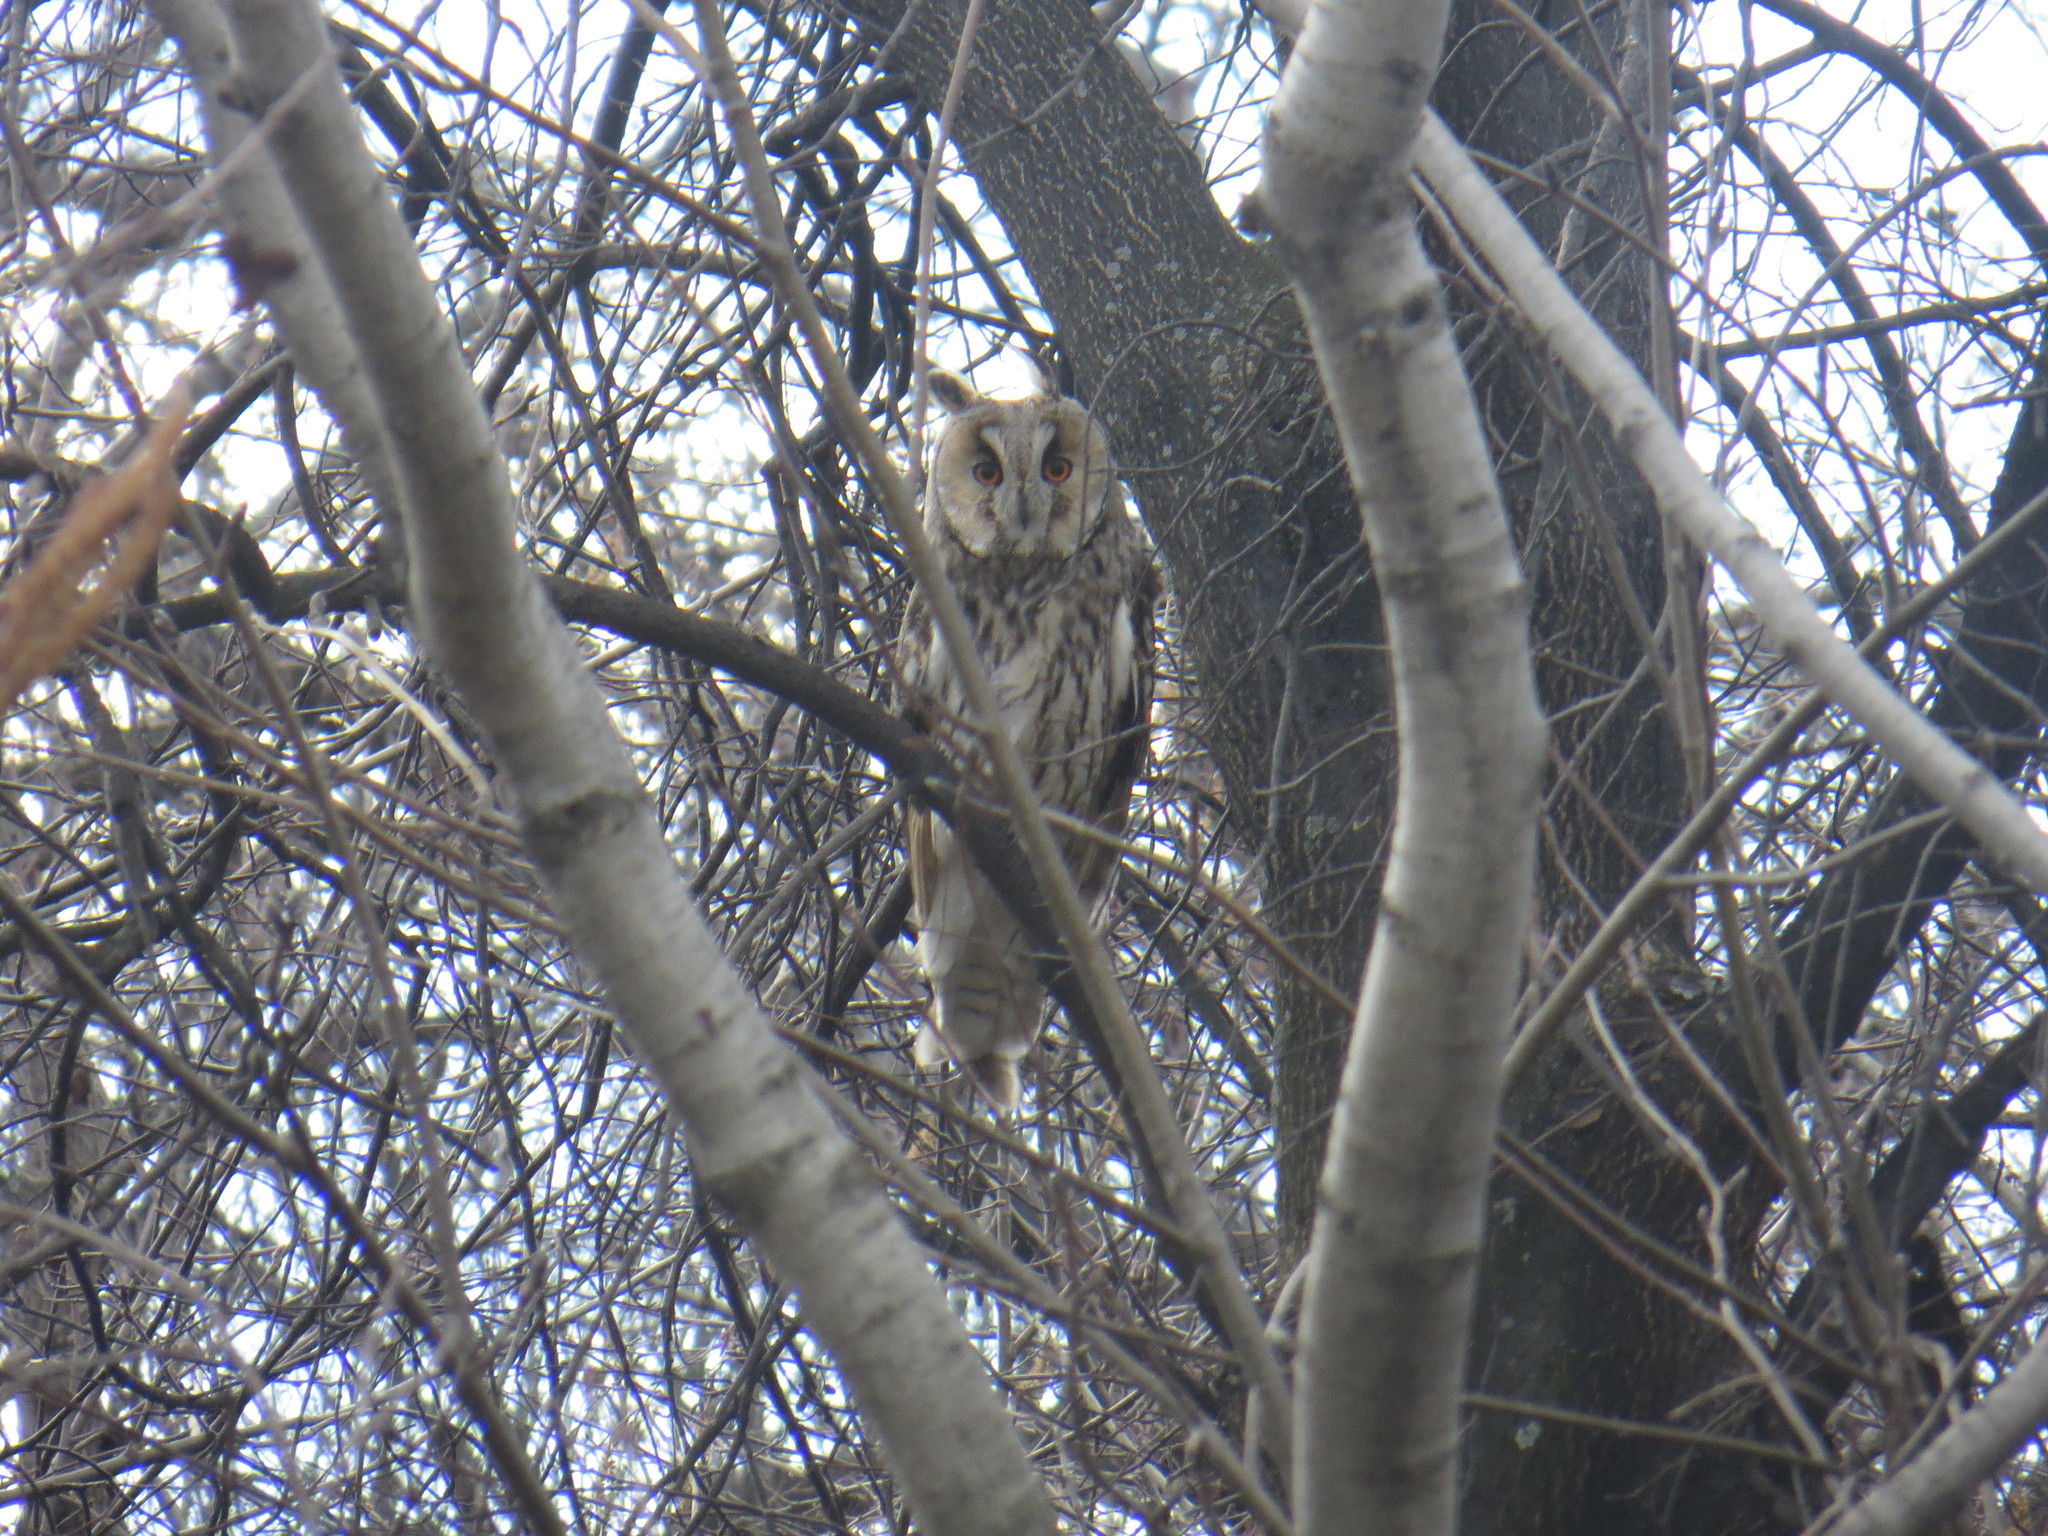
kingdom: Animalia
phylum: Chordata
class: Aves
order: Strigiformes
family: Strigidae
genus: Asio
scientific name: Asio otus
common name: Long-eared owl
